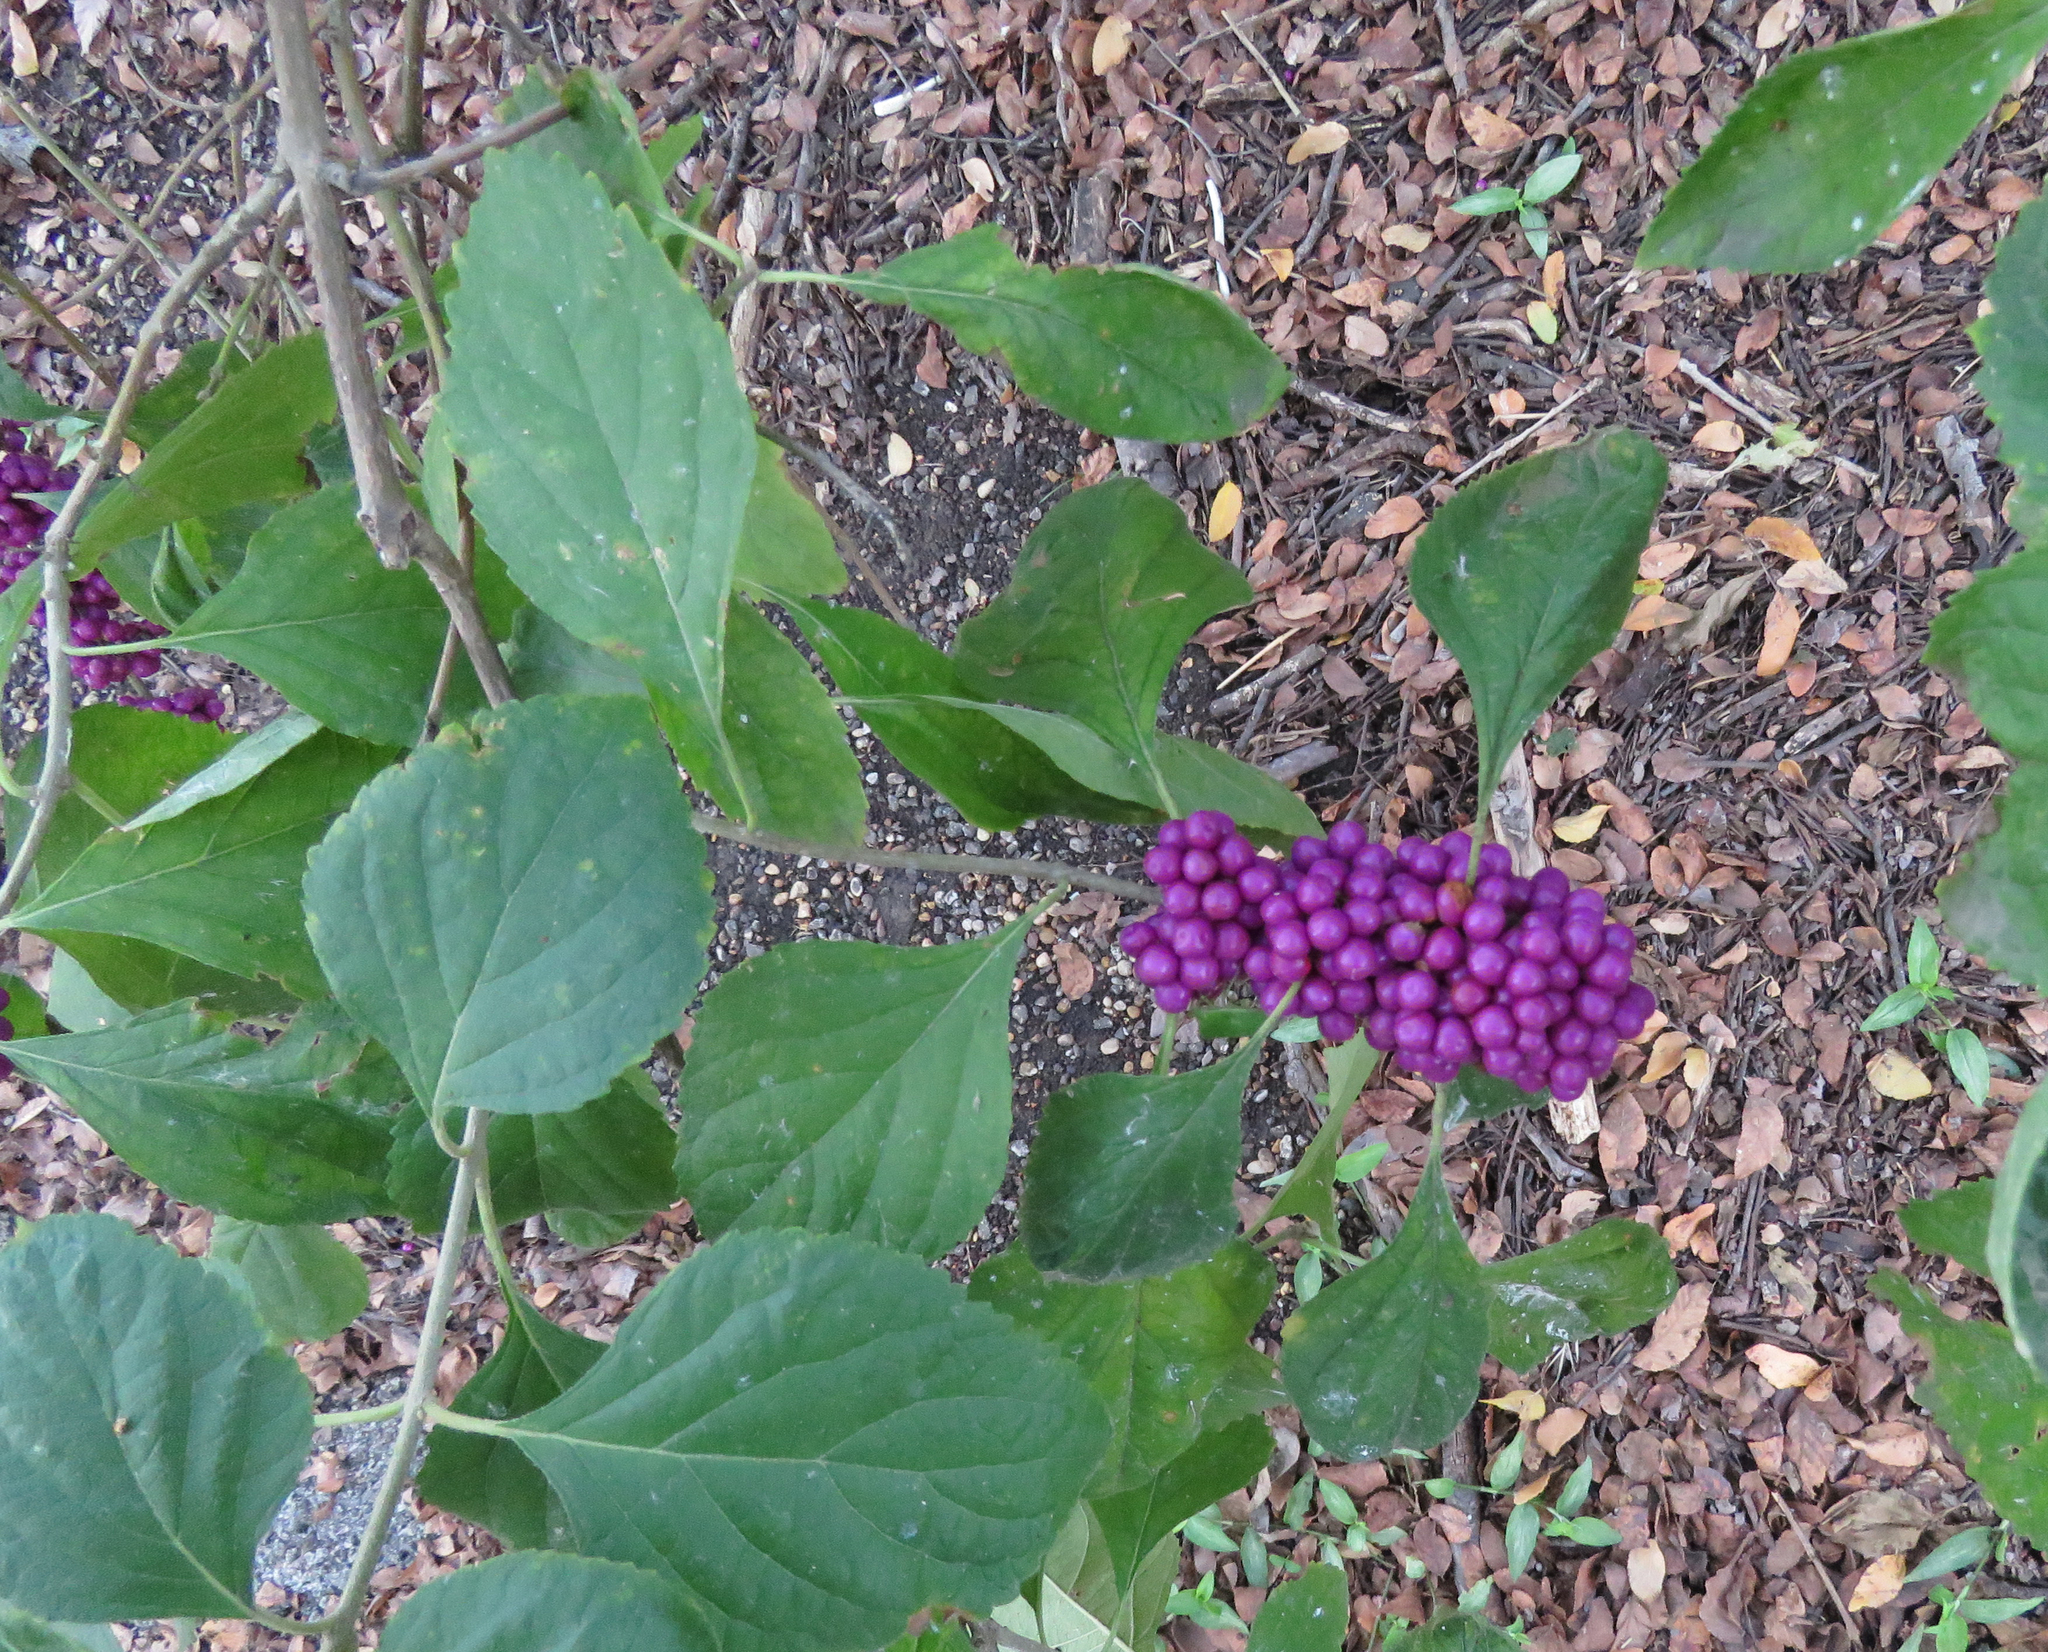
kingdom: Plantae
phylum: Tracheophyta
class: Magnoliopsida
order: Lamiales
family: Lamiaceae
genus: Callicarpa
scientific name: Callicarpa americana
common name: American beautyberry
